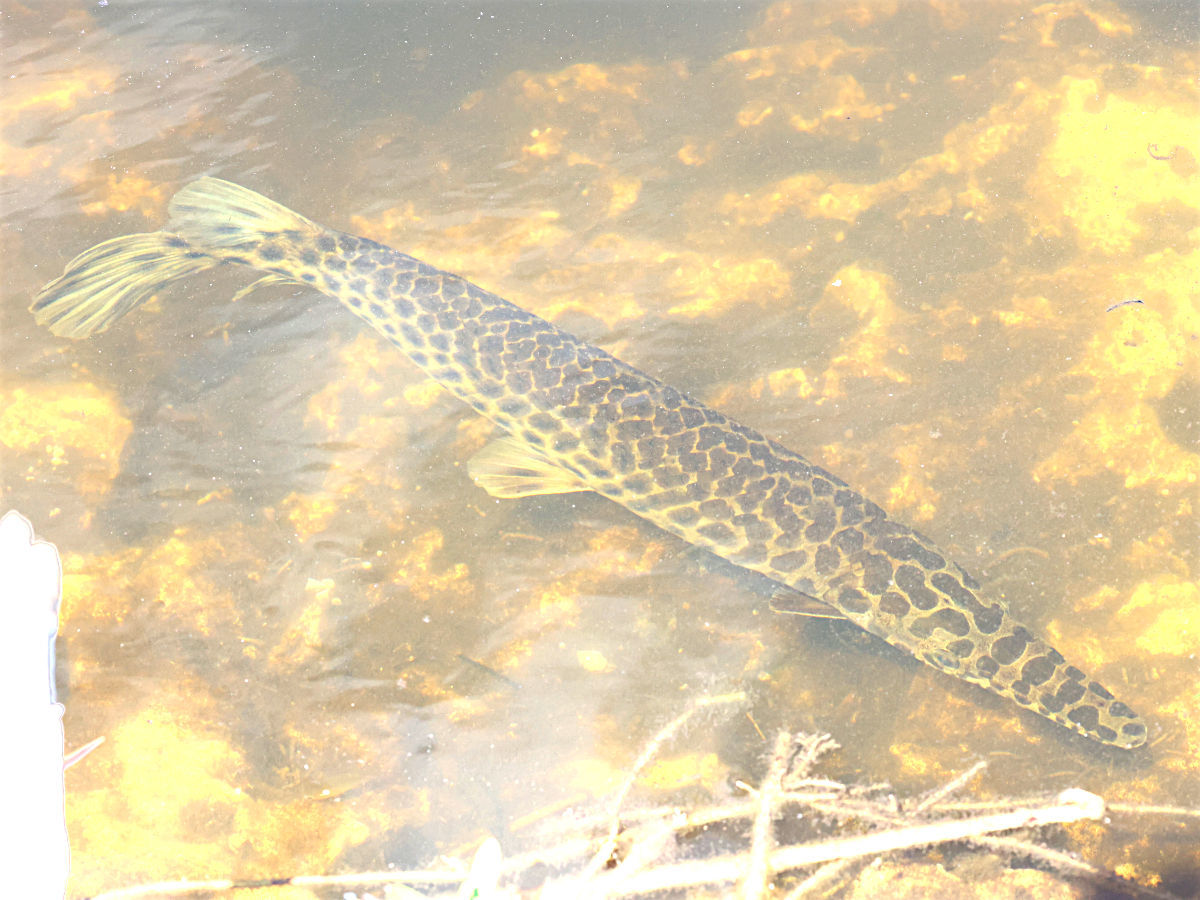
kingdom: Animalia
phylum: Chordata
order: Lepisosteiformes
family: Lepisosteidae
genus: Lepisosteus
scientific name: Lepisosteus platyrhincus
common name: Florida gar
